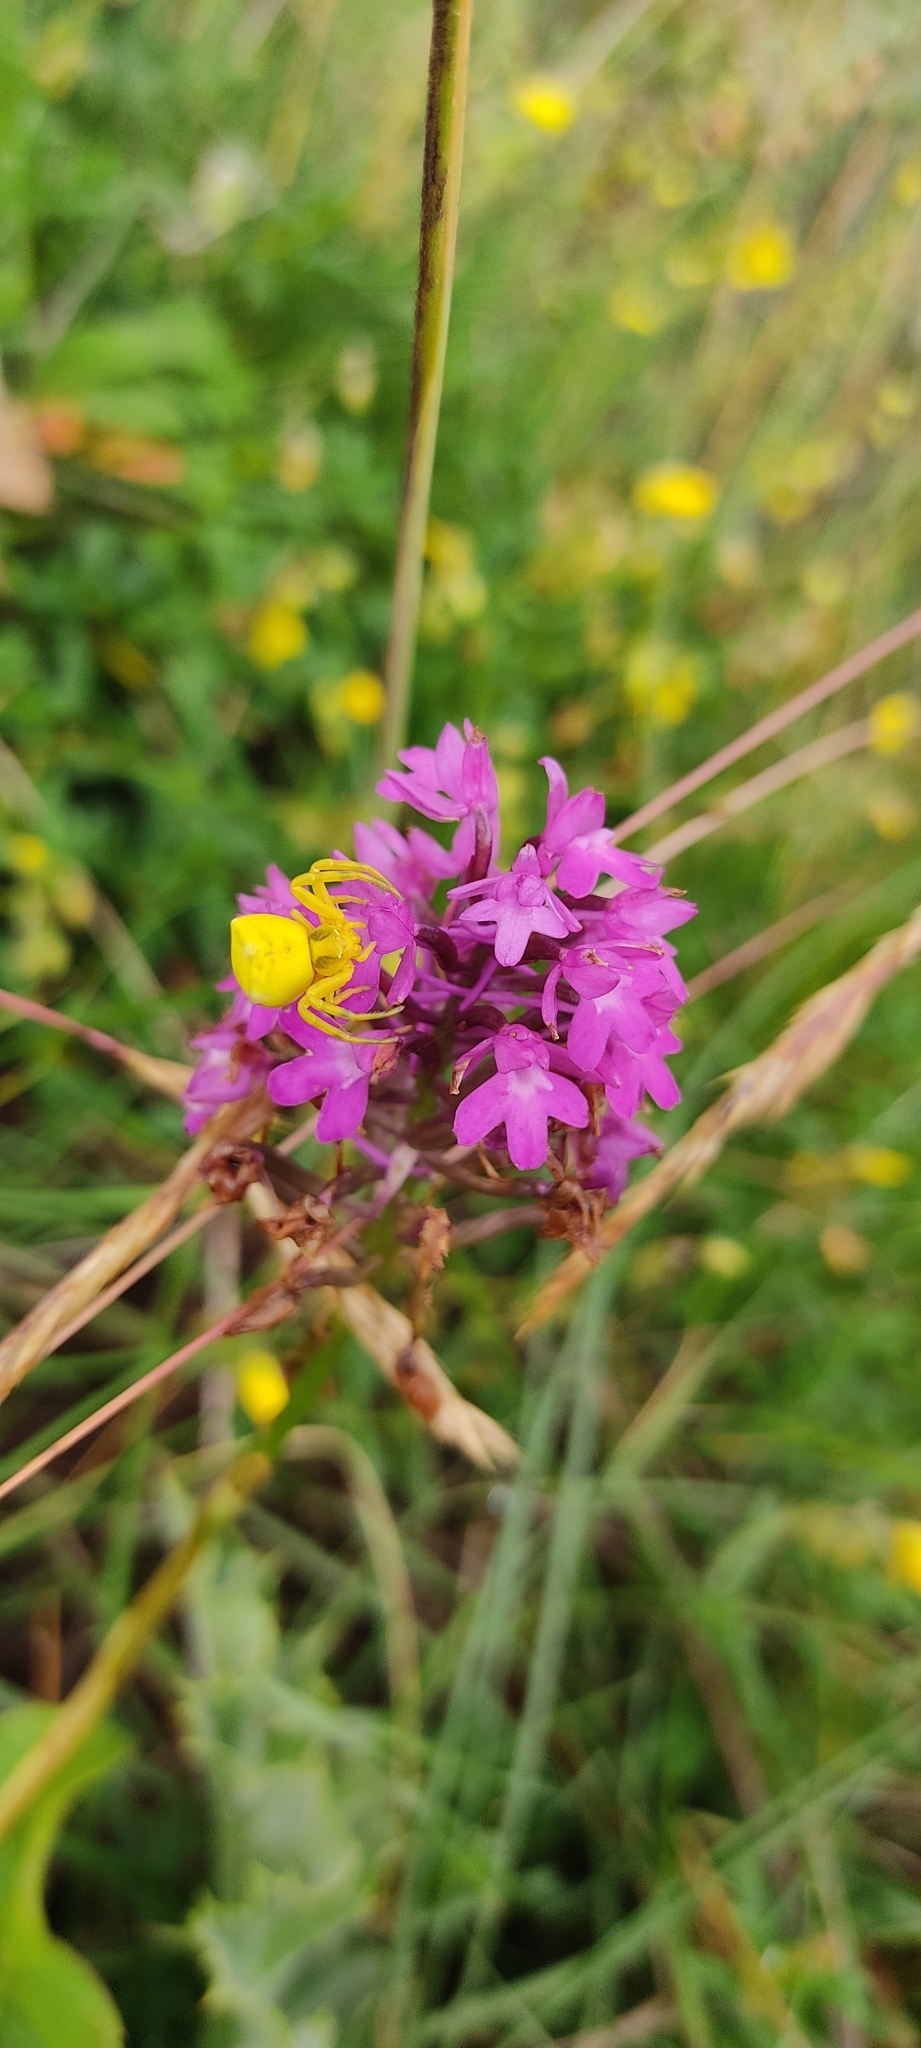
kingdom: Animalia
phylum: Arthropoda
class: Arachnida
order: Araneae
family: Thomisidae
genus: Thomisus
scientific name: Thomisus onustus
